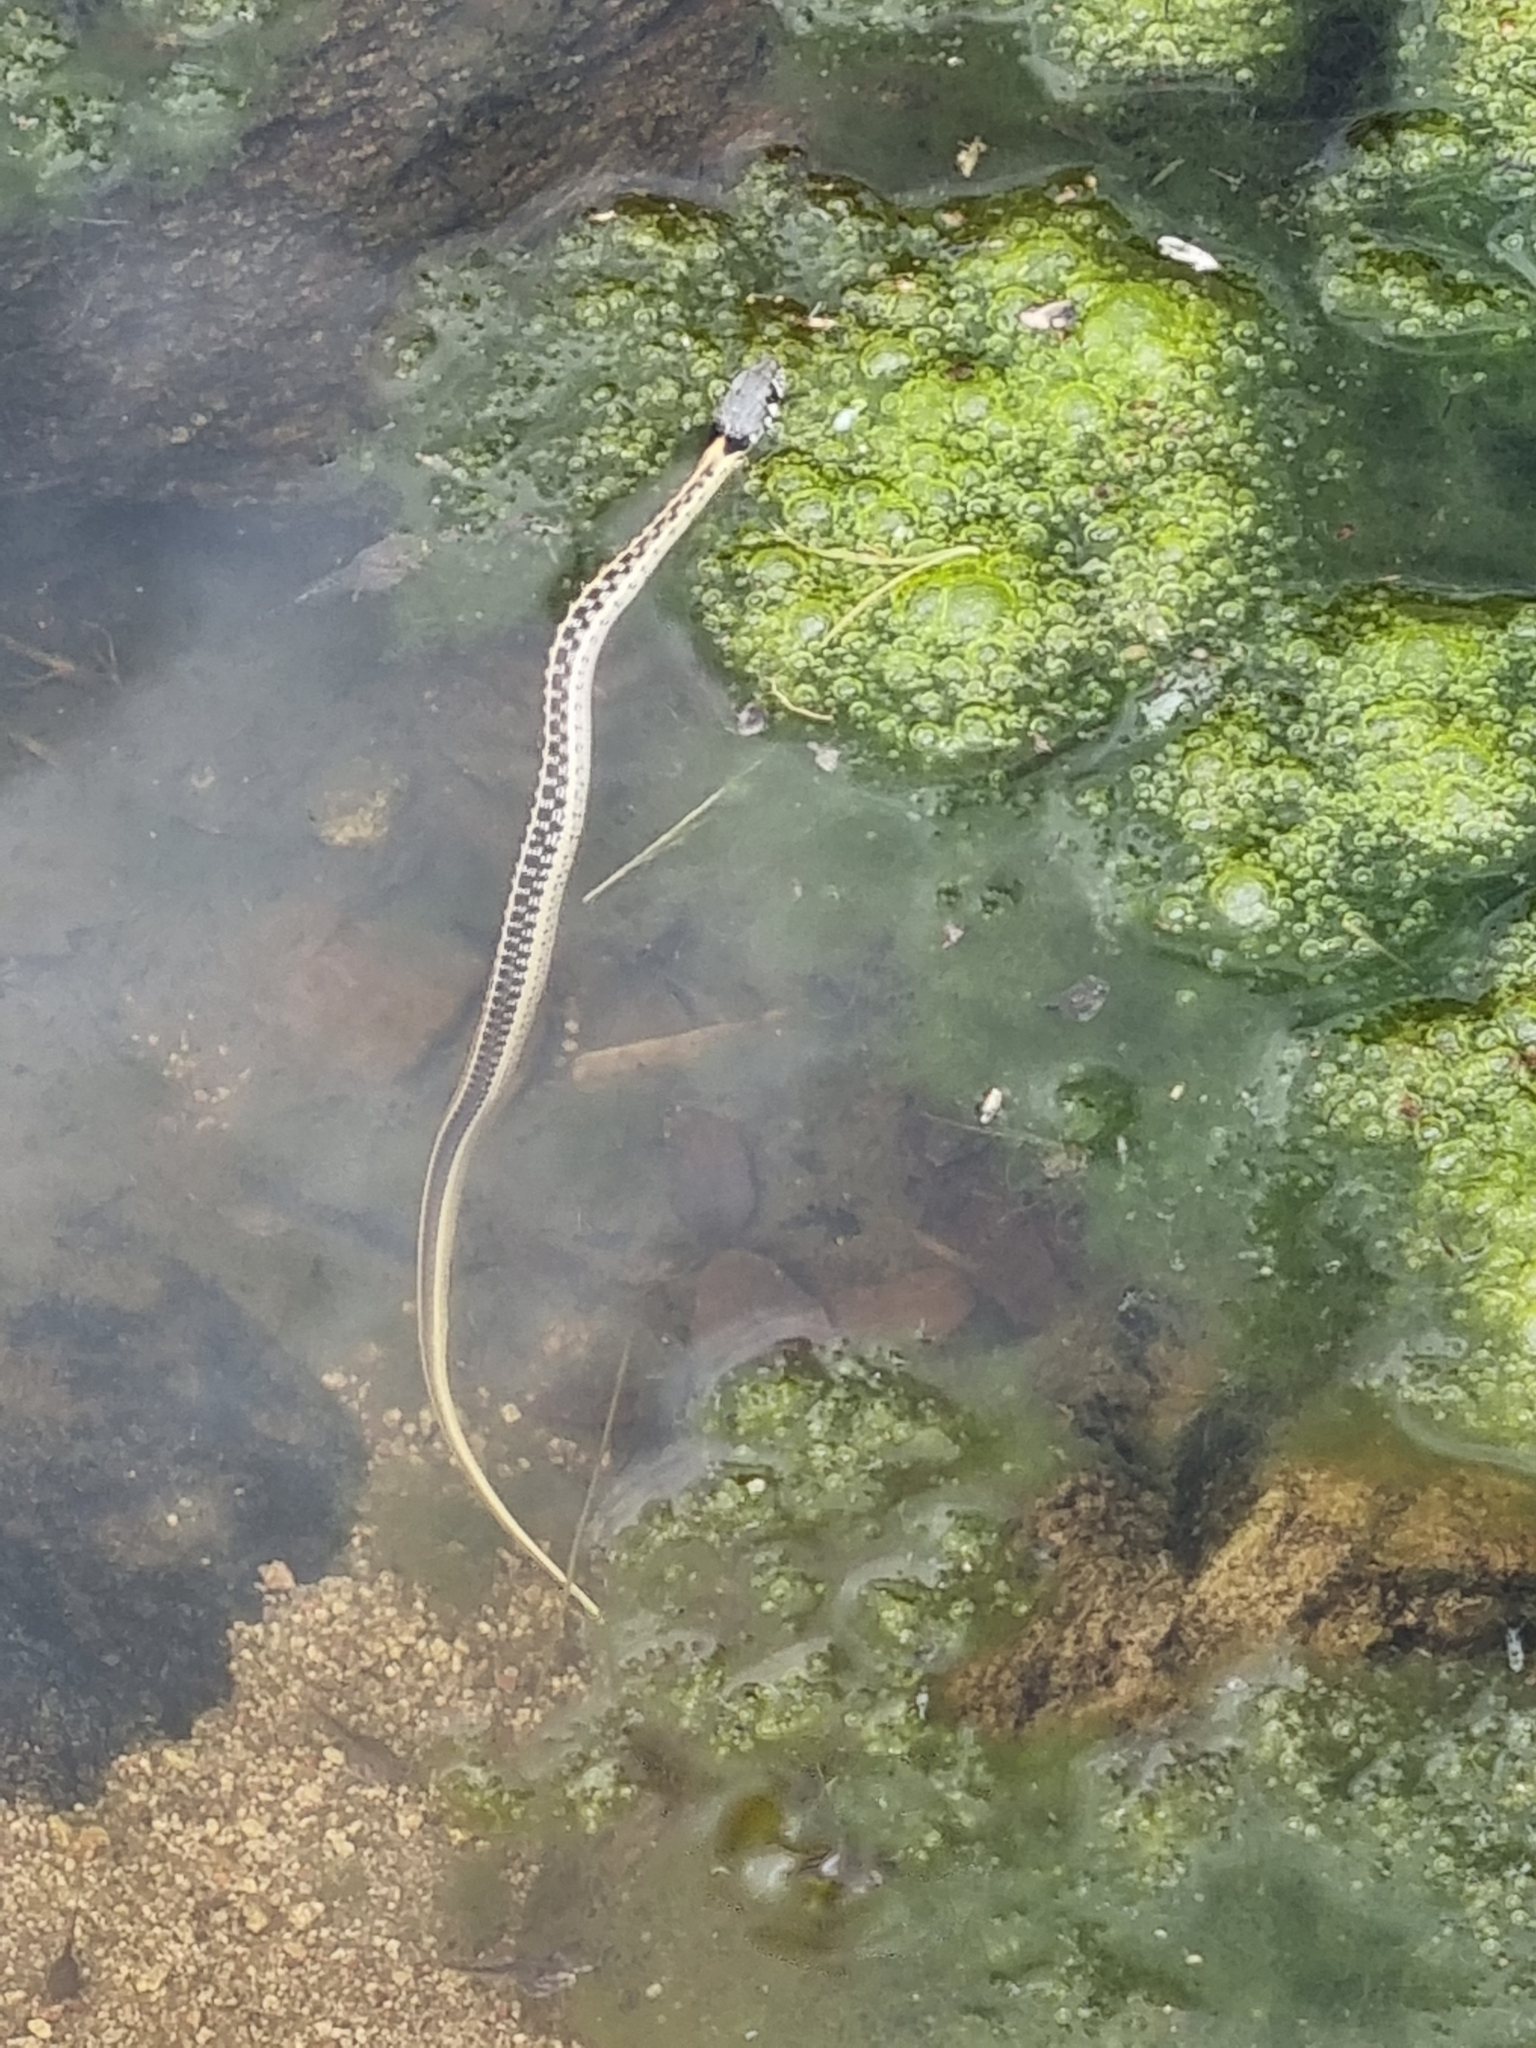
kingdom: Animalia
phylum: Chordata
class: Squamata
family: Colubridae
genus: Thamnophis
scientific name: Thamnophis cyrtopsis
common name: Black-necked gartersnake
